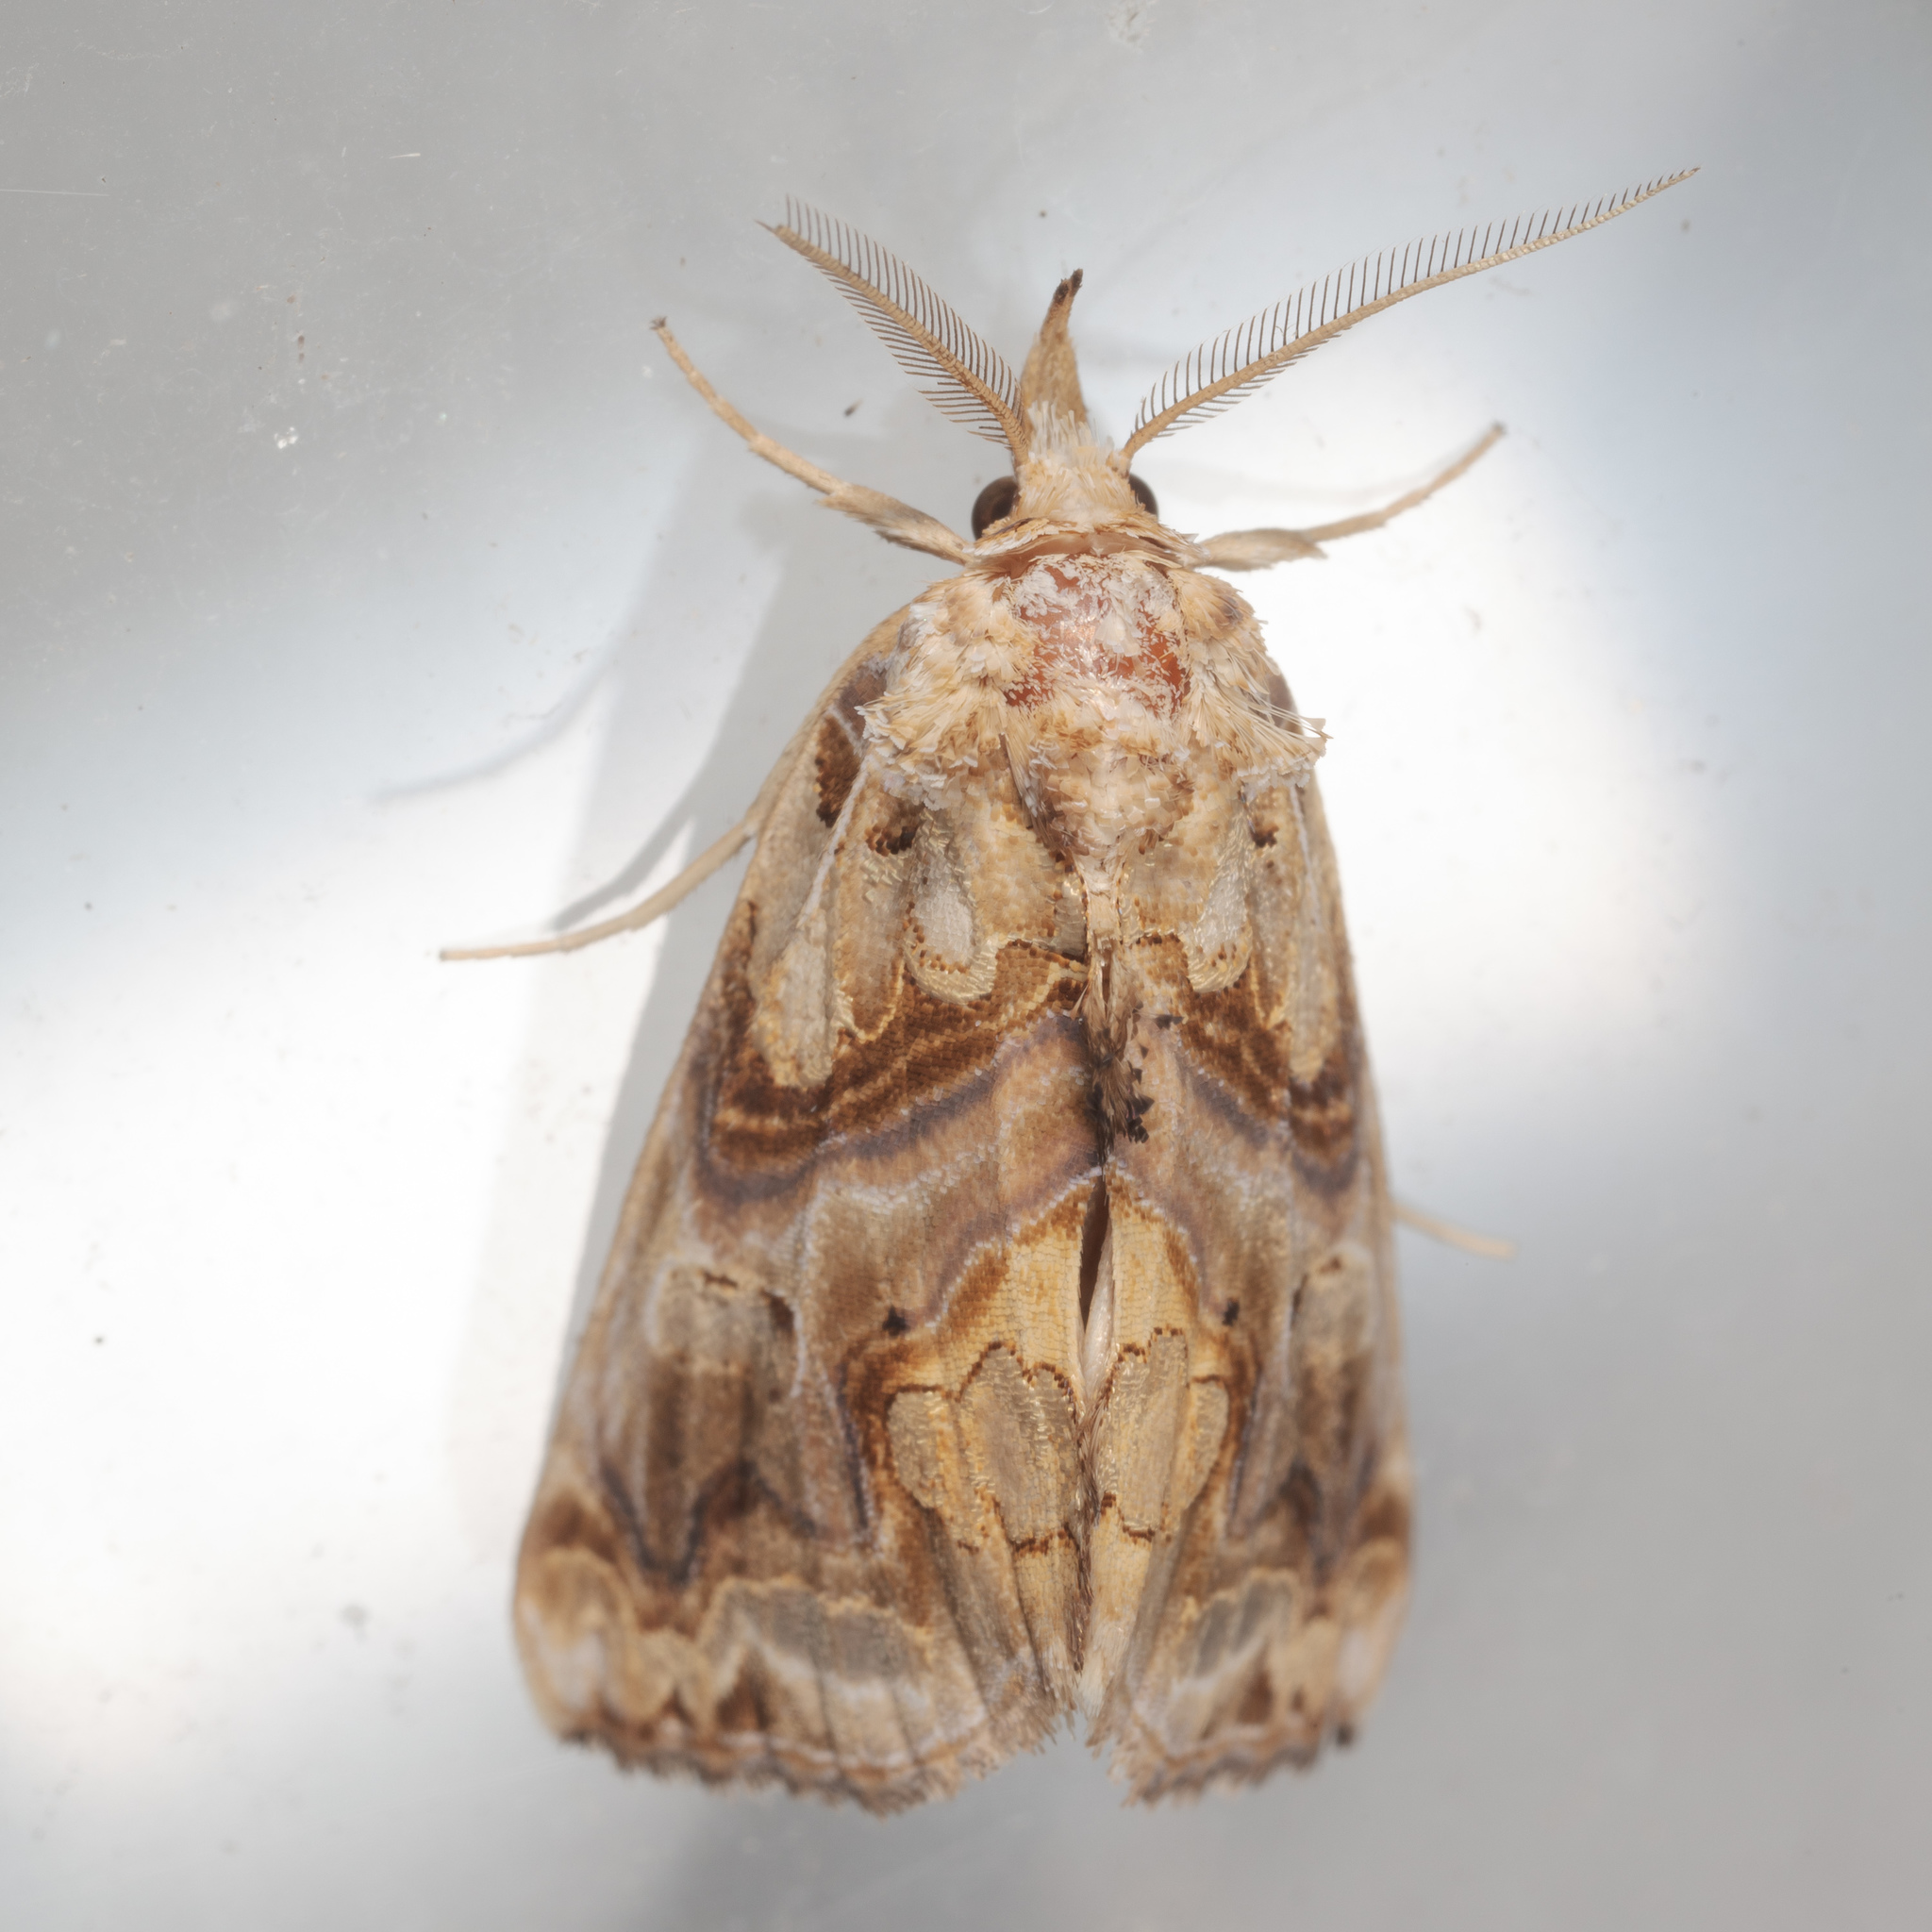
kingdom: Animalia
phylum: Arthropoda
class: Insecta
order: Lepidoptera
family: Erebidae
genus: Plusiodonta
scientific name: Plusiodonta compressipalpis
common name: Moonseed moth
